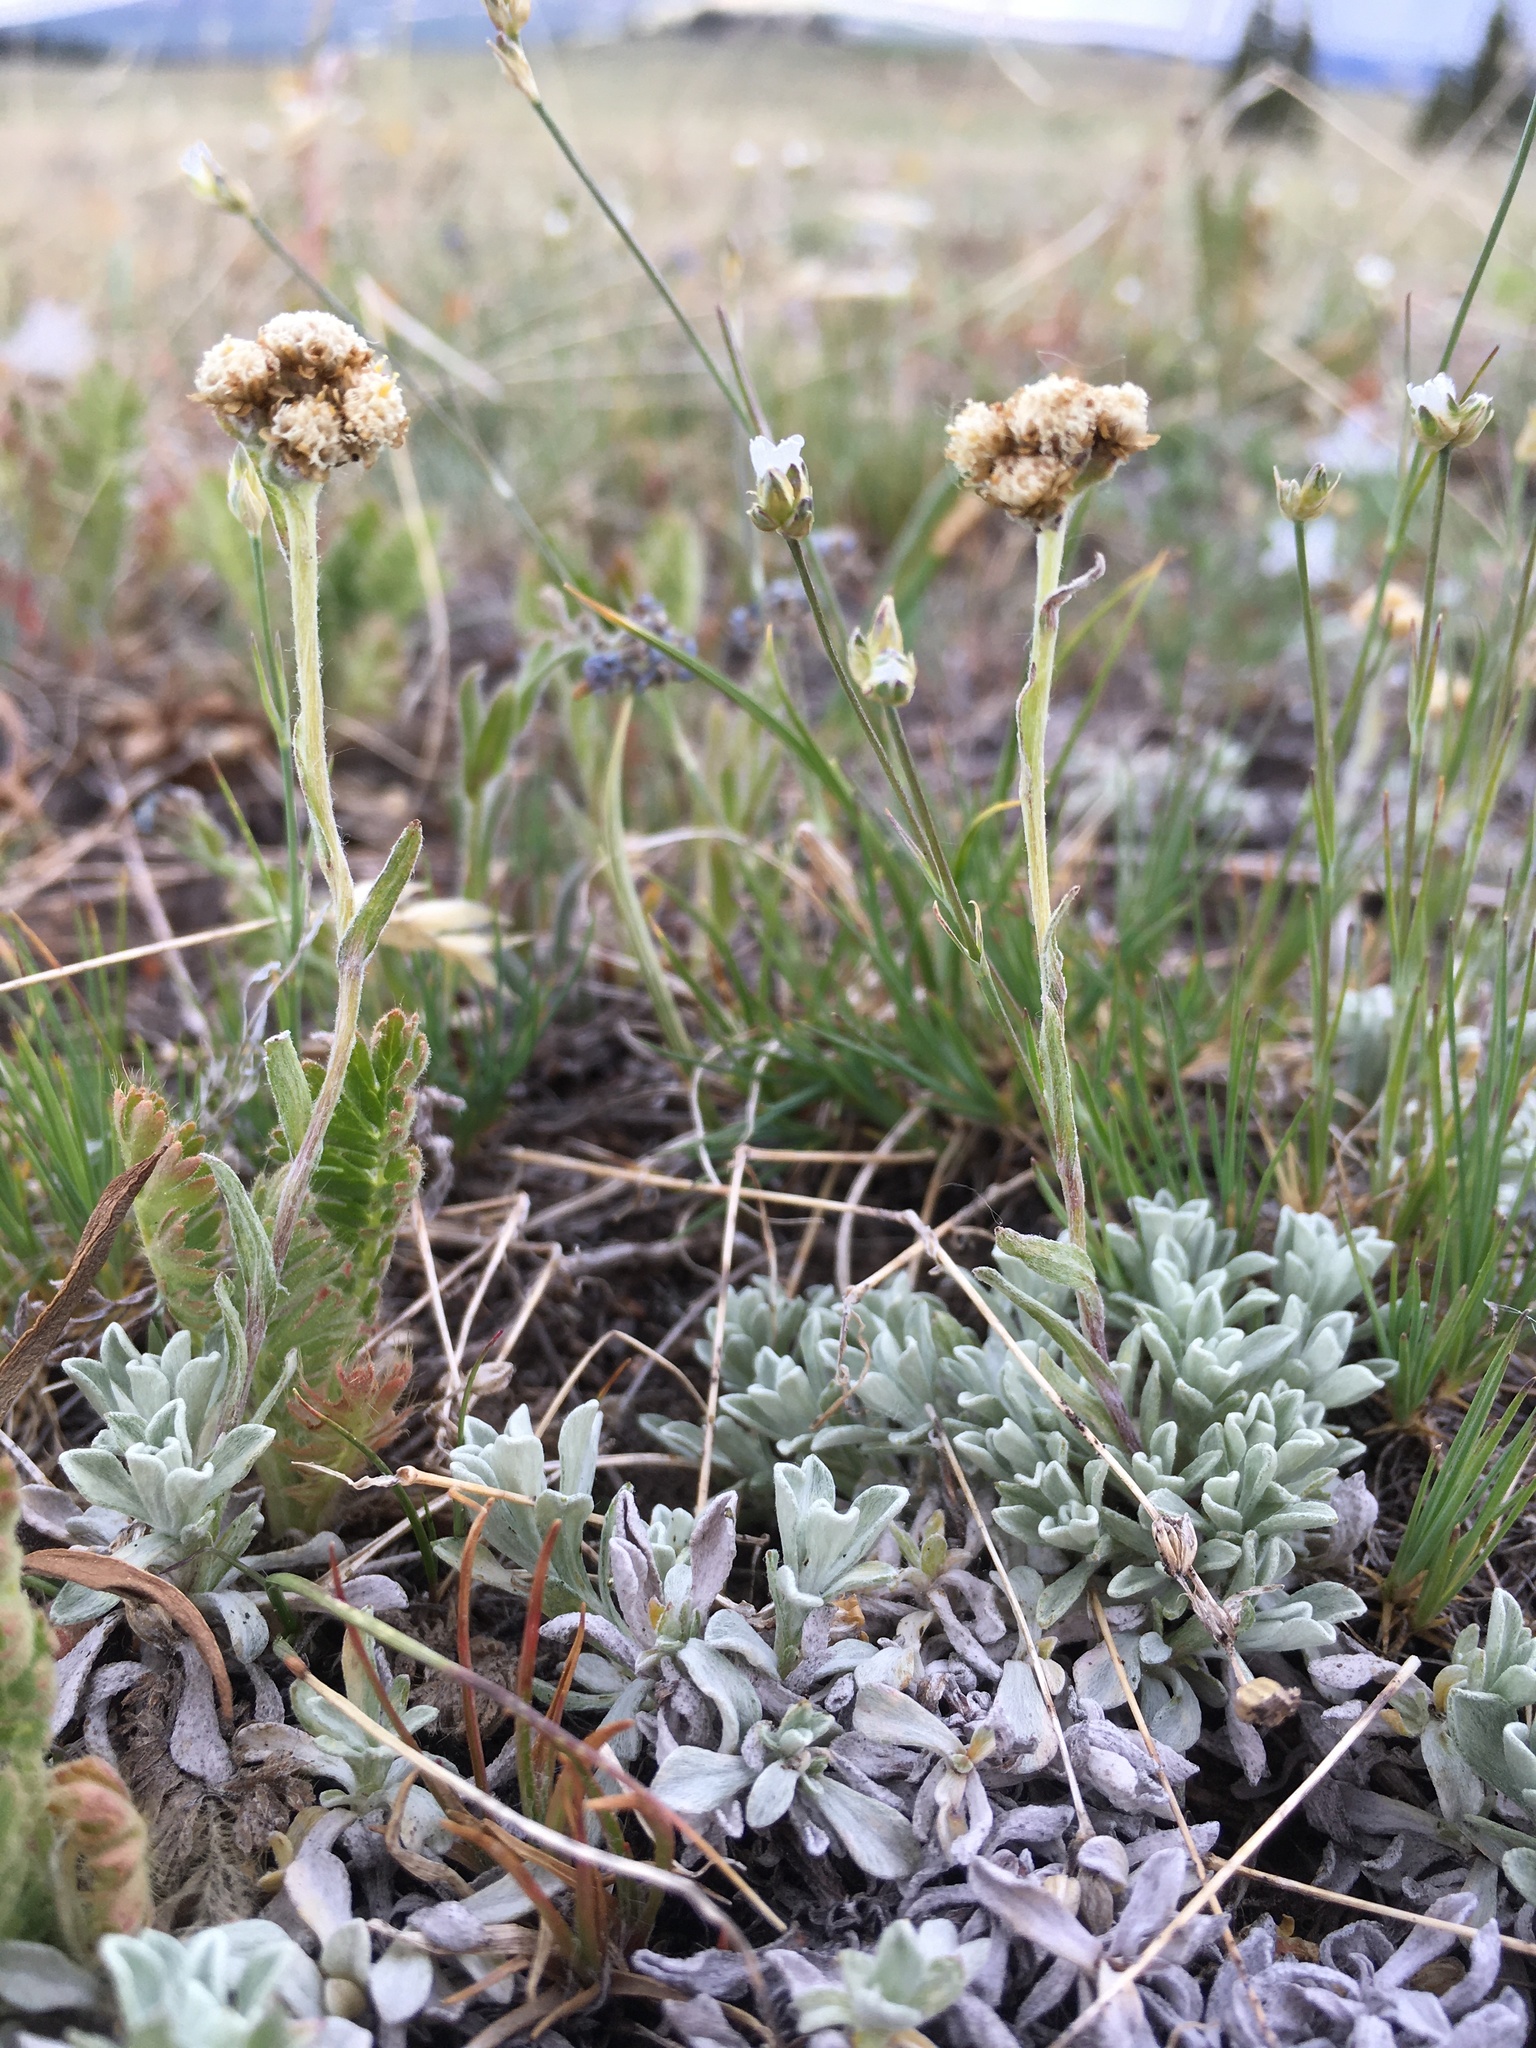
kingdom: Plantae
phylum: Tracheophyta
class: Magnoliopsida
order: Asterales
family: Asteraceae
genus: Antennaria
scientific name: Antennaria umbrinella
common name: Brown pussytoes
